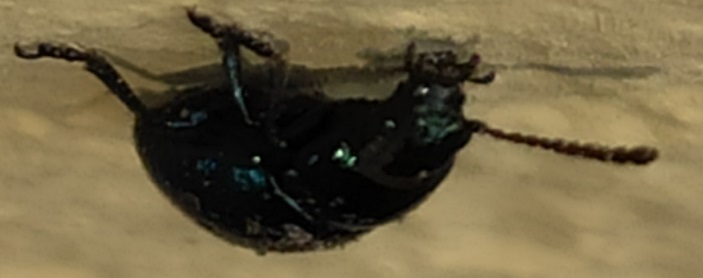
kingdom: Animalia
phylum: Arthropoda
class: Insecta
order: Coleoptera
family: Chrysomelidae
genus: Gastrophysa
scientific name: Gastrophysa janthina
